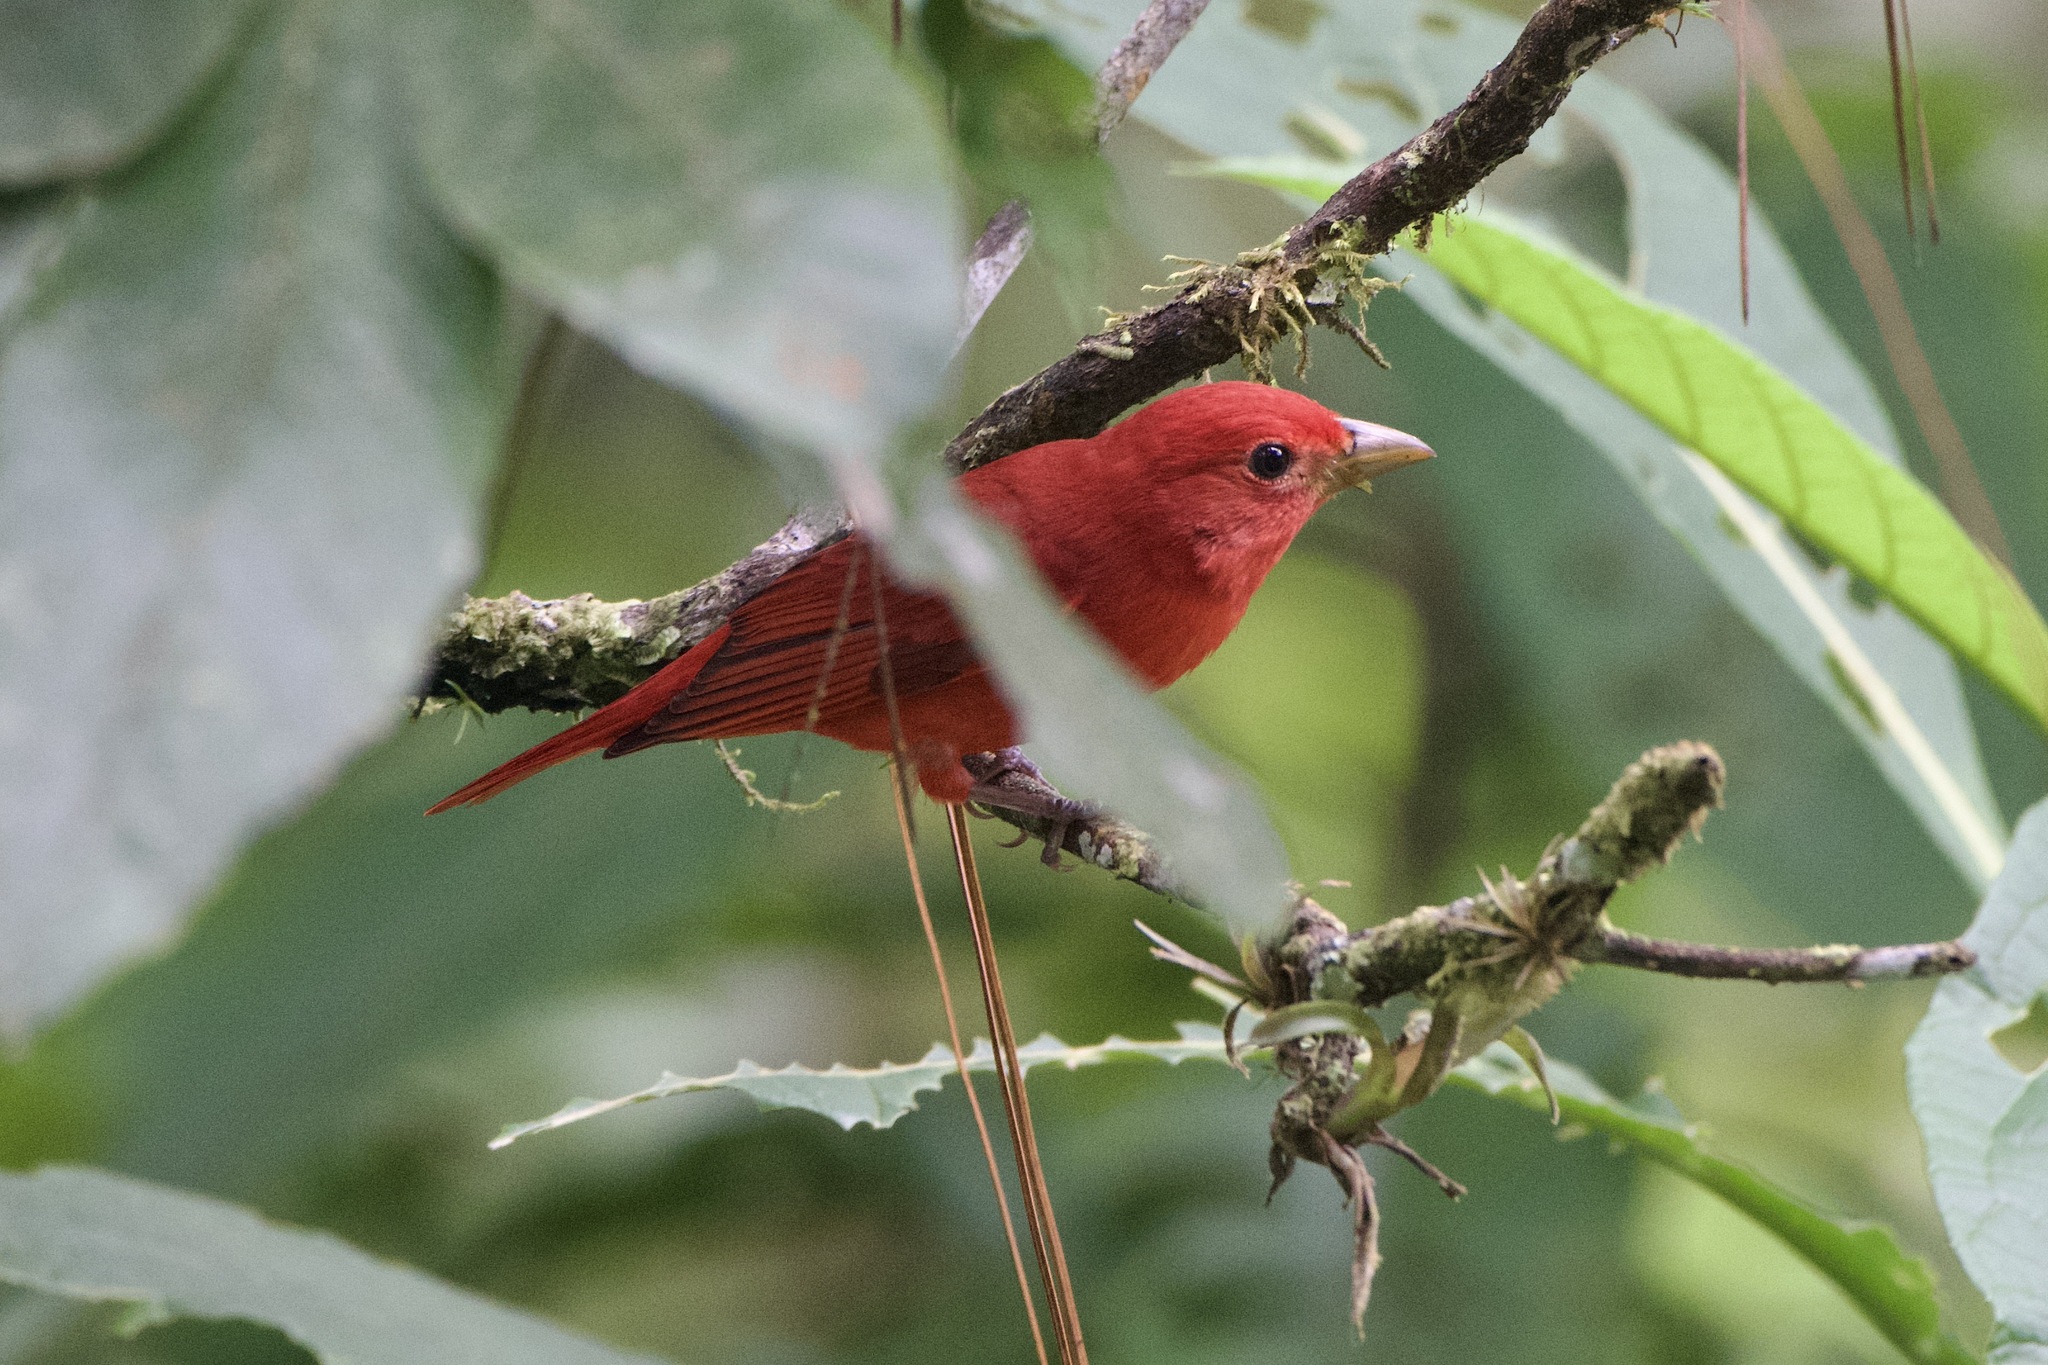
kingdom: Animalia
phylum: Chordata
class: Aves
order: Passeriformes
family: Cardinalidae
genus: Piranga
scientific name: Piranga rubra
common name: Summer tanager
